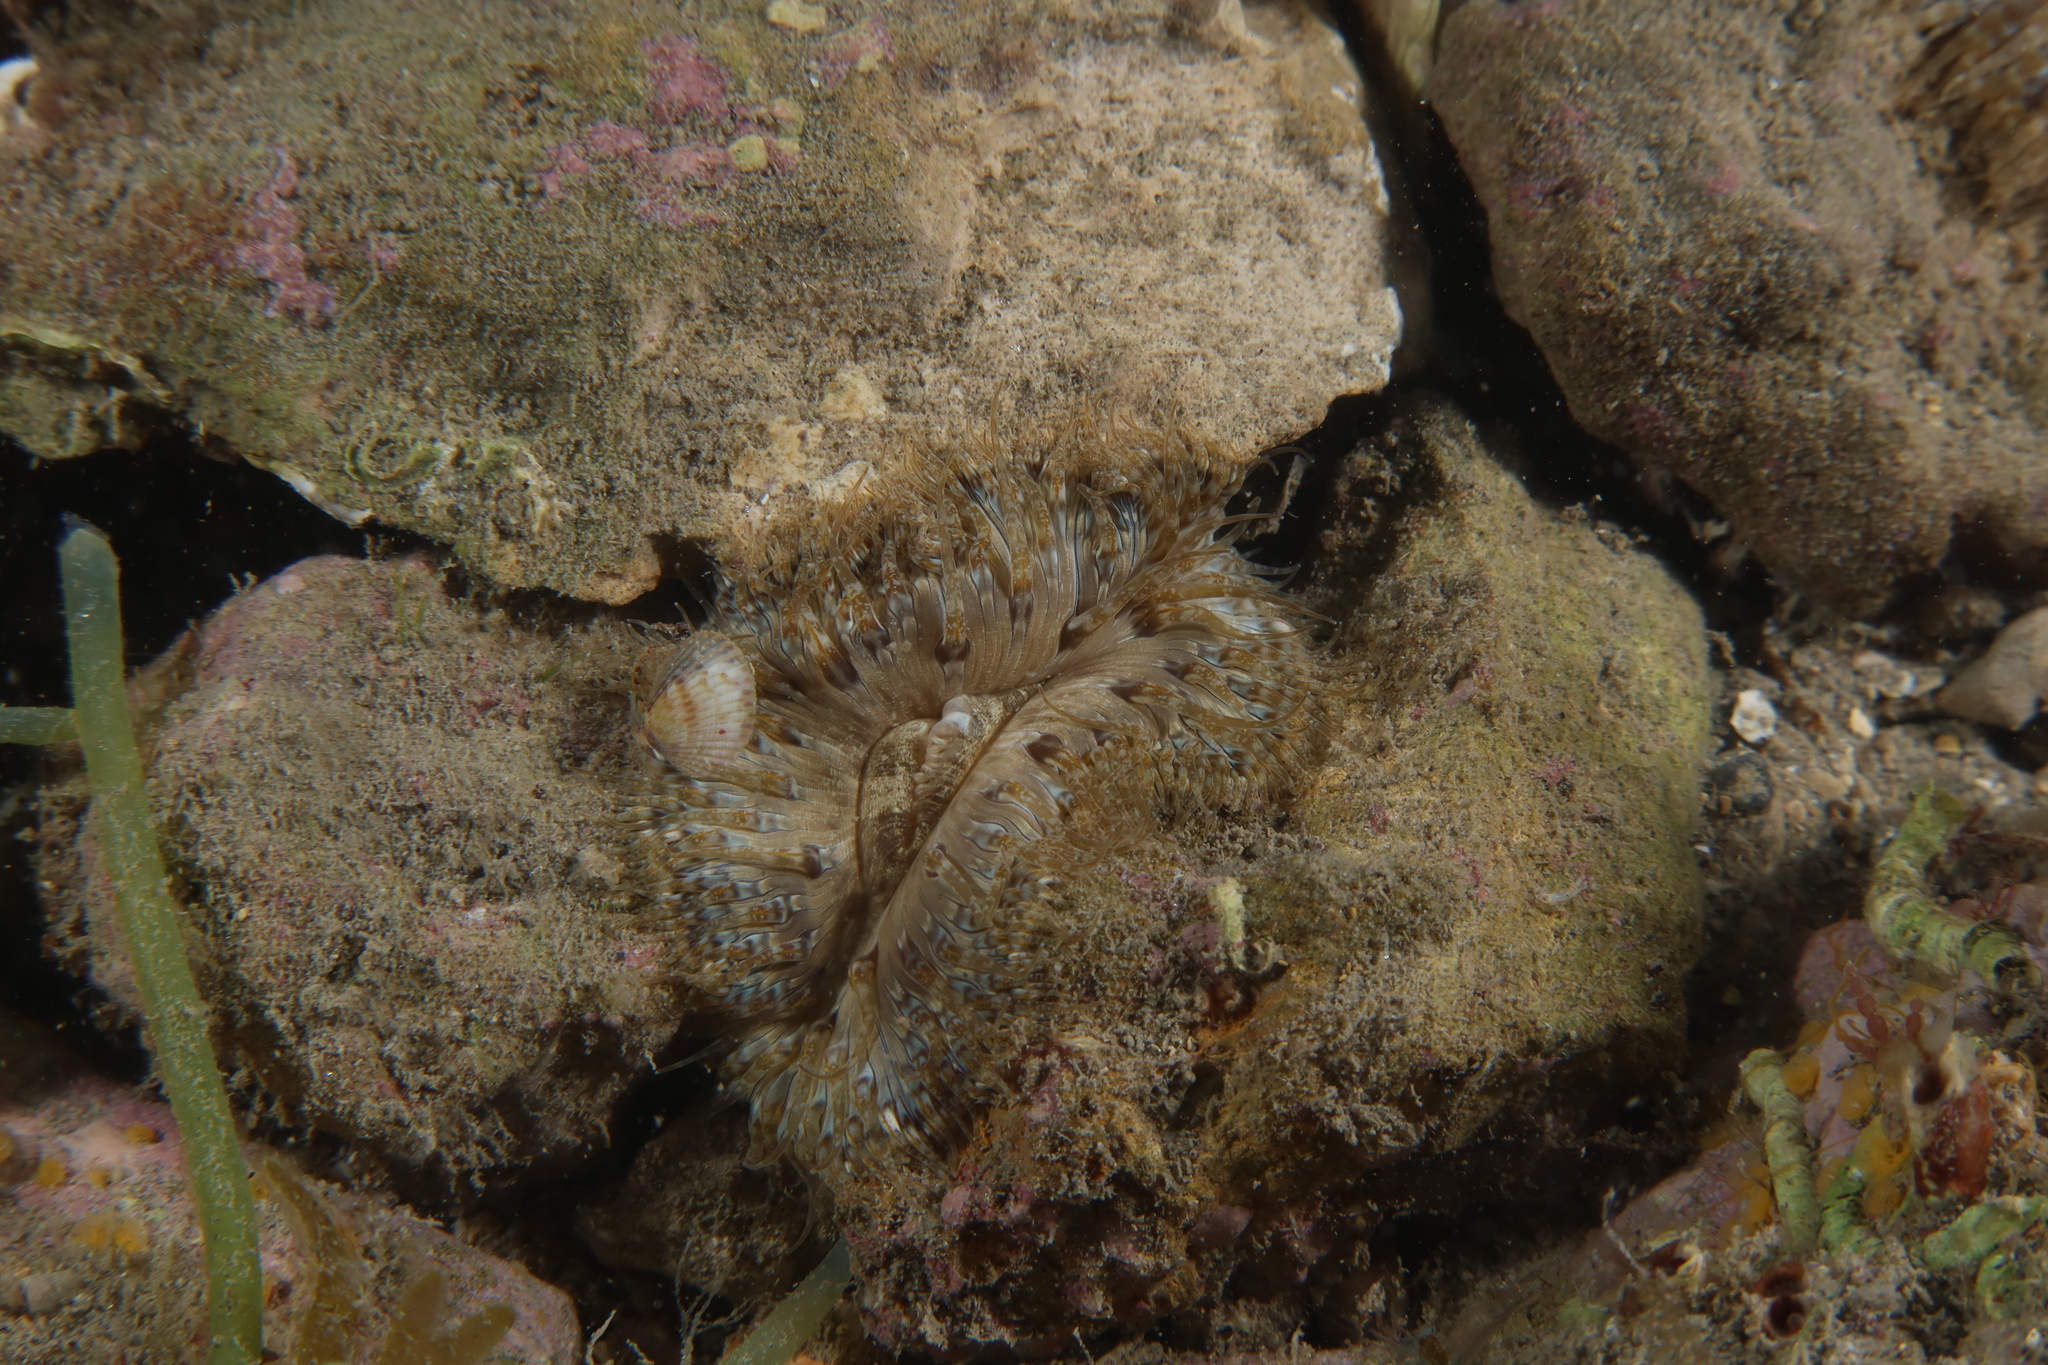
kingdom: Animalia
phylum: Cnidaria
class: Anthozoa
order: Actiniaria
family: Sagartiidae
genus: Cereus
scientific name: Cereus pedunculatus
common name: Daisy anemone
